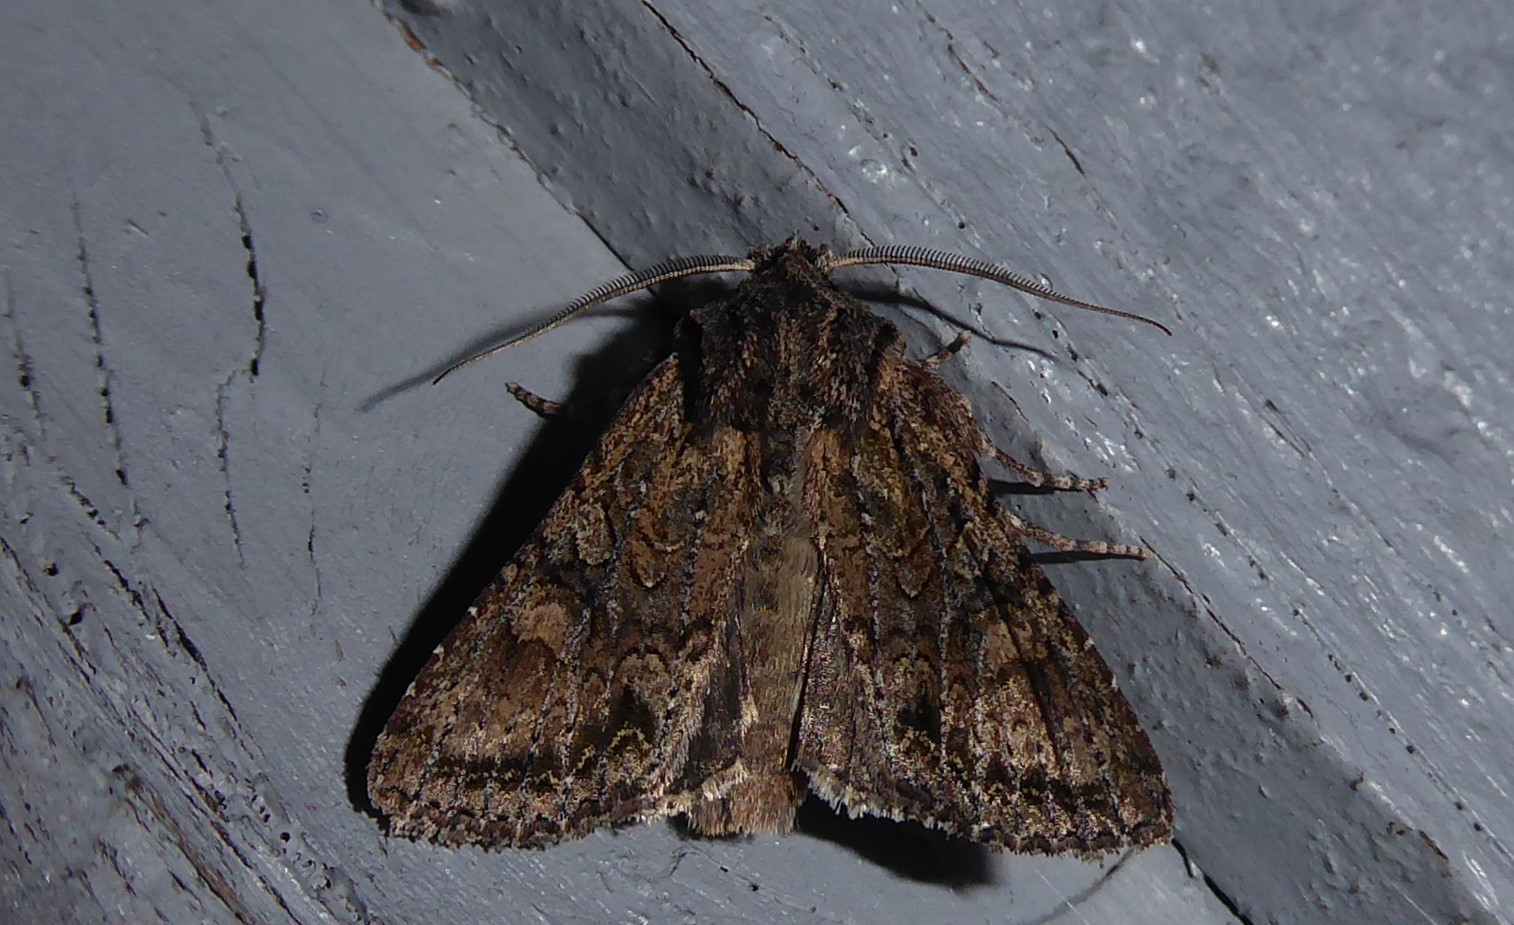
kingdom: Animalia
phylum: Arthropoda
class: Insecta
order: Lepidoptera
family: Noctuidae
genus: Ichneutica
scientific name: Ichneutica mutans
